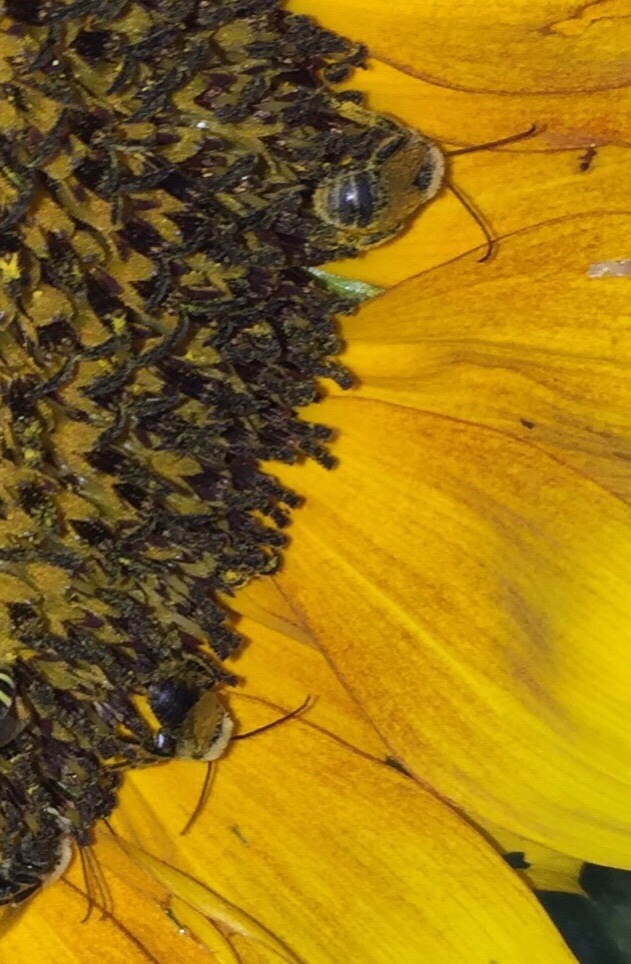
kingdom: Animalia
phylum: Arthropoda
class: Insecta
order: Hymenoptera
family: Apidae
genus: Melissodes
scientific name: Melissodes trinodis
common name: Dark-veined longhorn
